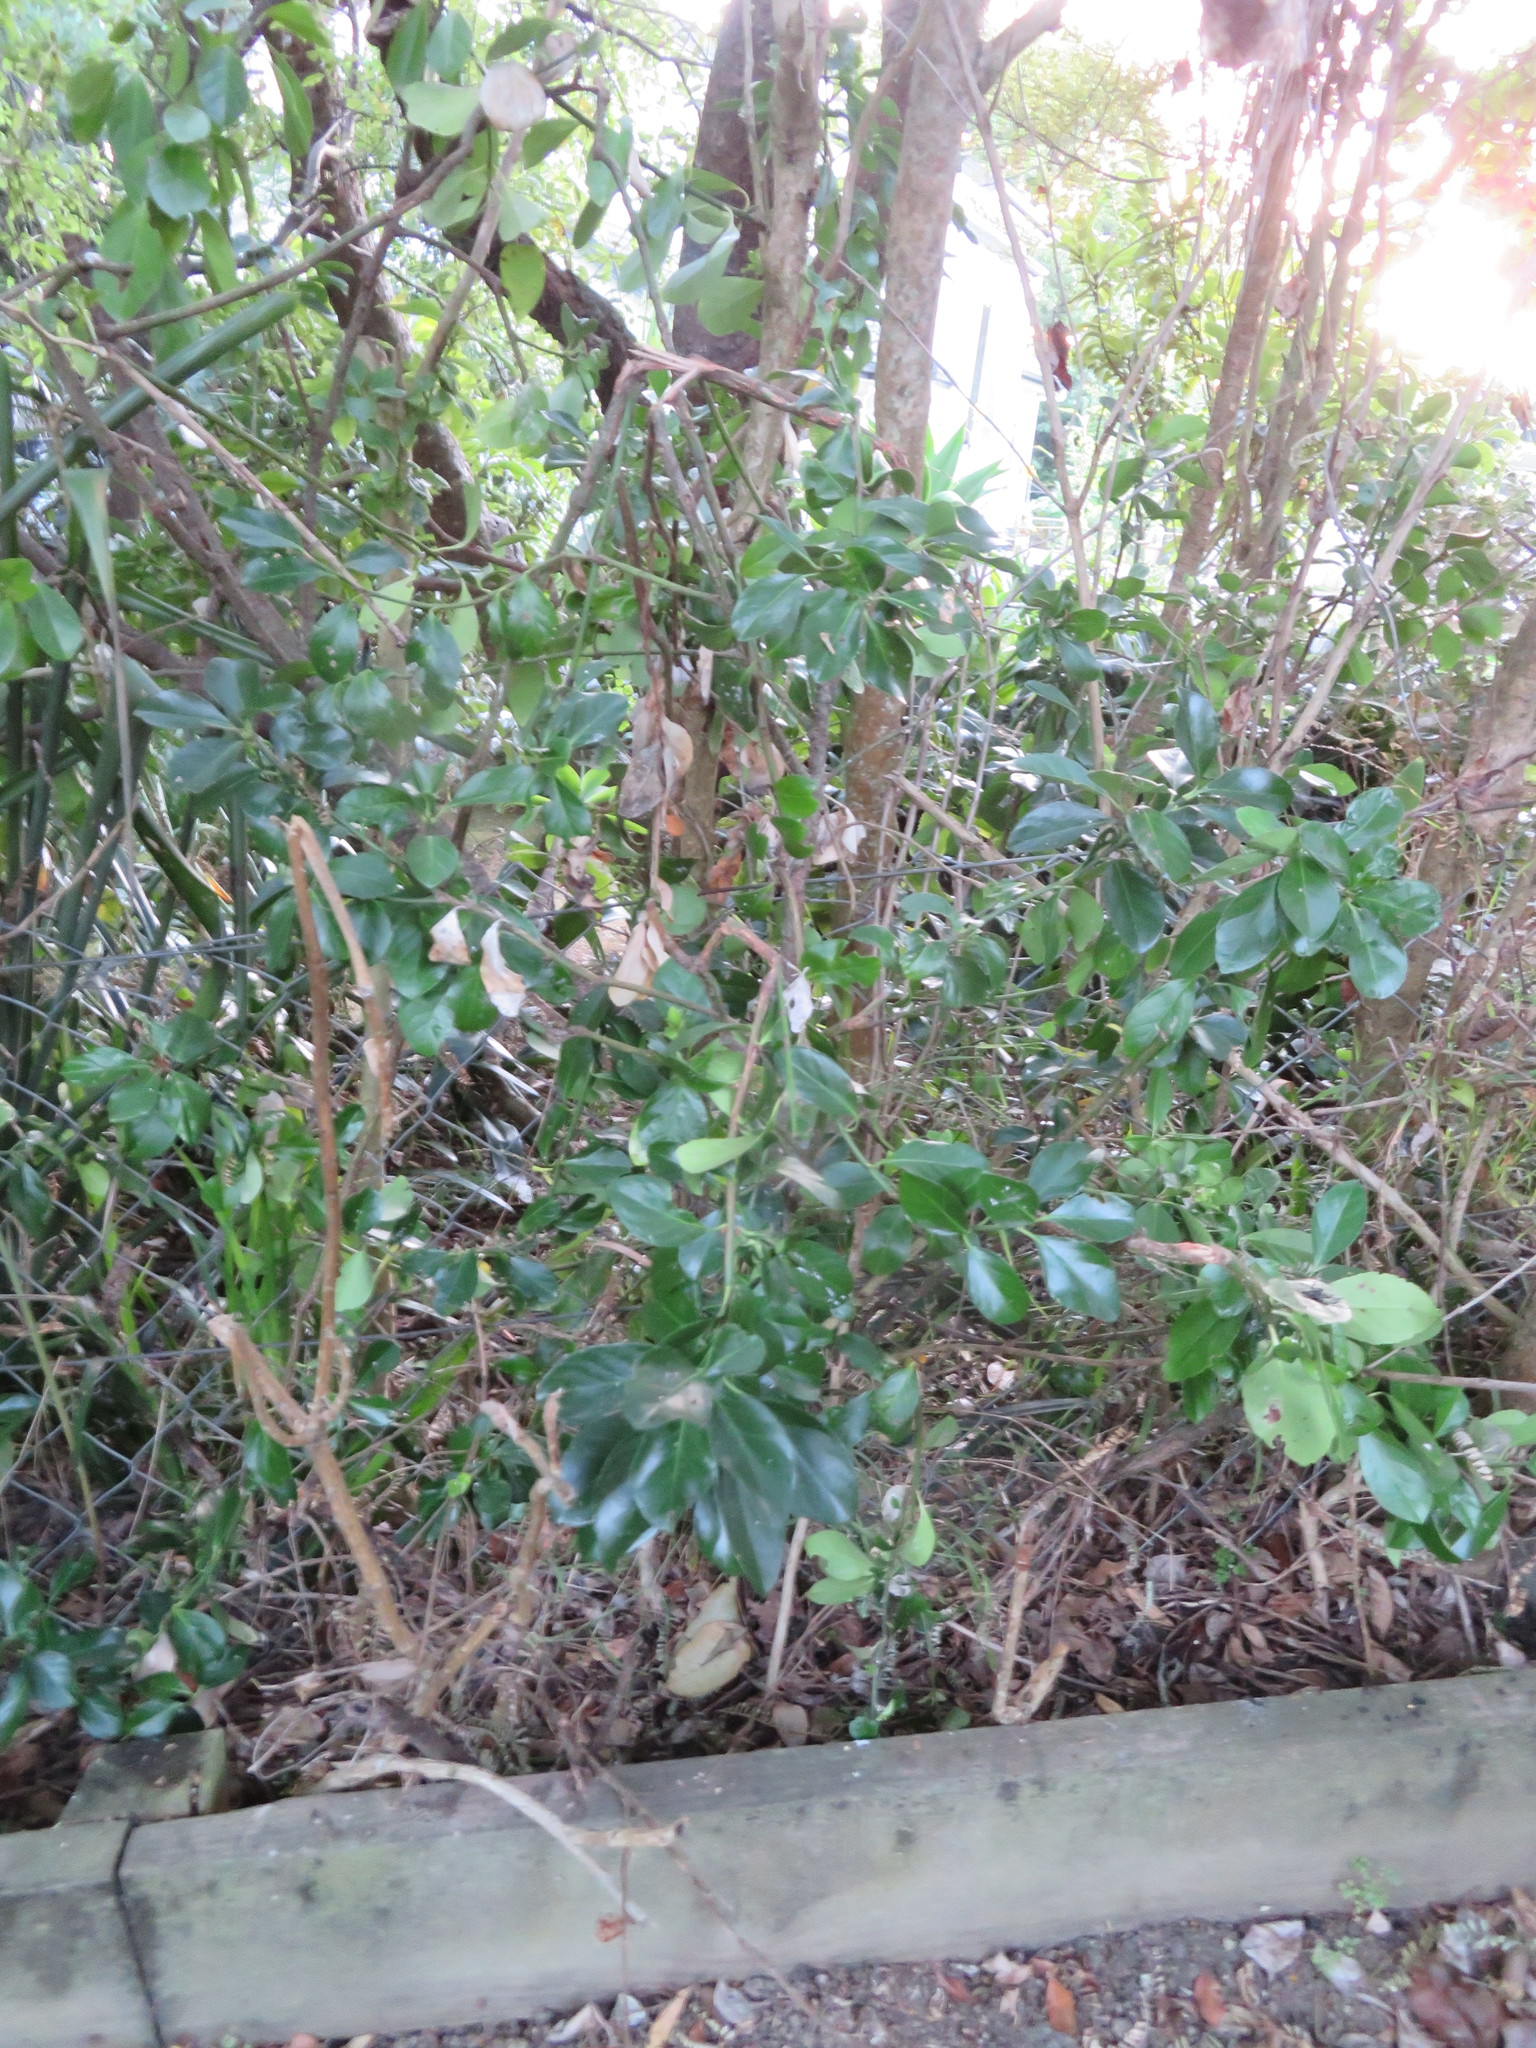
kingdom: Plantae
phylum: Tracheophyta
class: Magnoliopsida
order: Celastrales
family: Celastraceae
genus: Euonymus
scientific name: Euonymus japonicus
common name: Japanese spindletree
